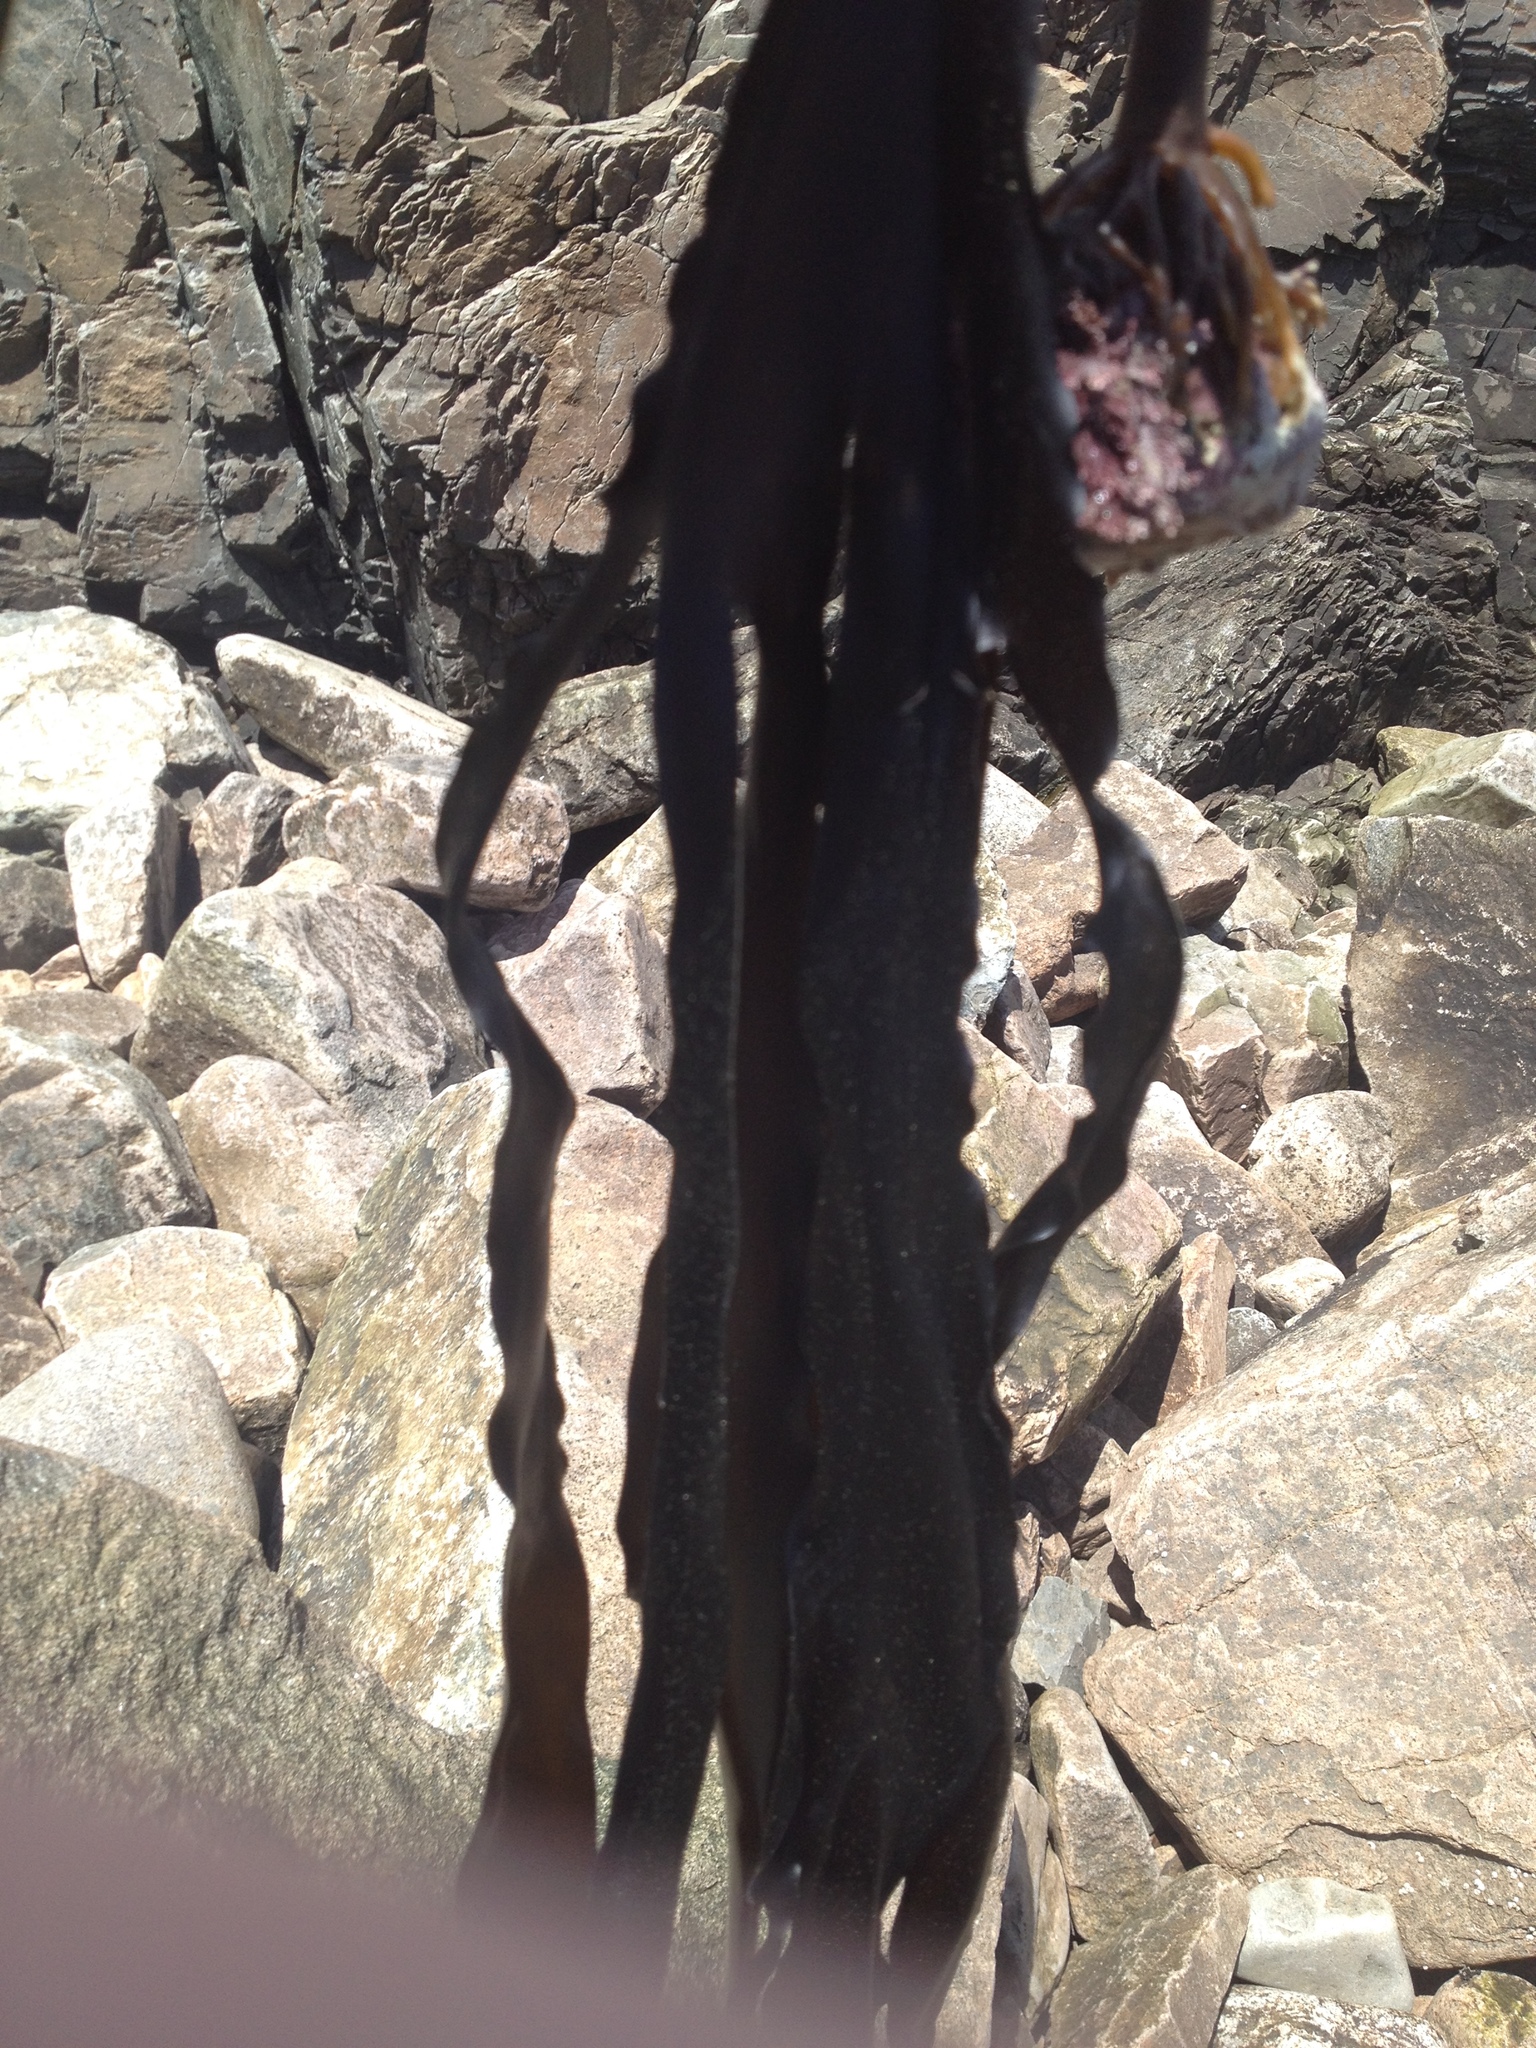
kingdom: Chromista
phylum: Ochrophyta
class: Phaeophyceae
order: Laminariales
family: Laminariaceae
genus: Laminaria
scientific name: Laminaria digitata
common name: Oarweed
